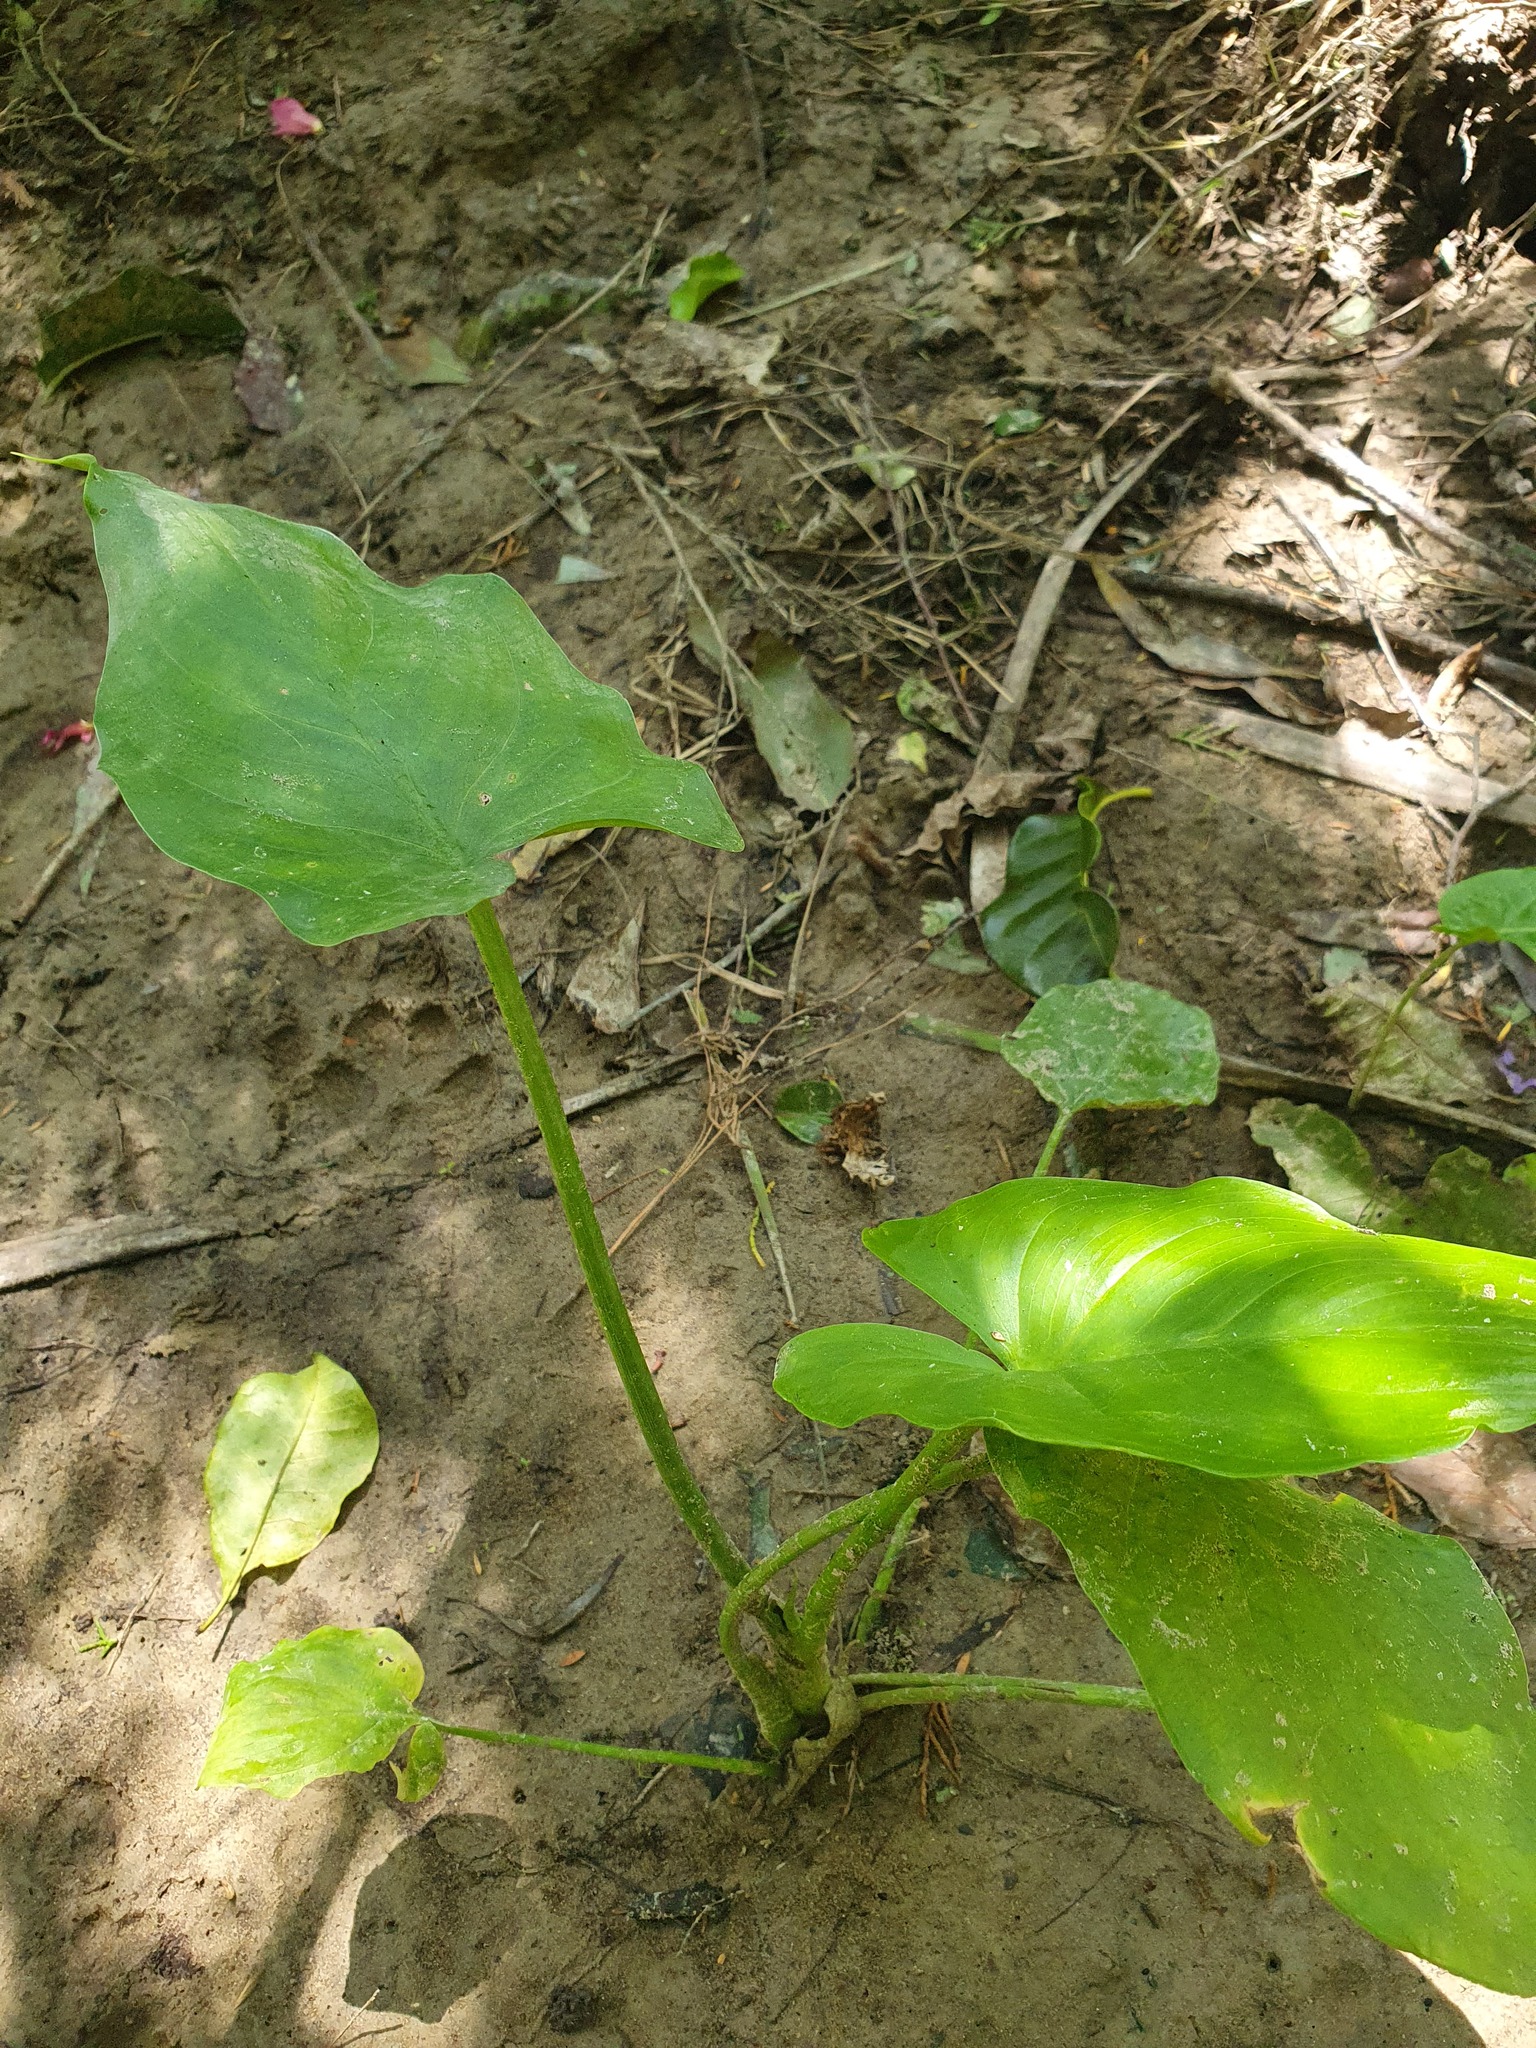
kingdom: Plantae
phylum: Tracheophyta
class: Liliopsida
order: Alismatales
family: Araceae
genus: Zantedeschia
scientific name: Zantedeschia aethiopica
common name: Altar-lily
